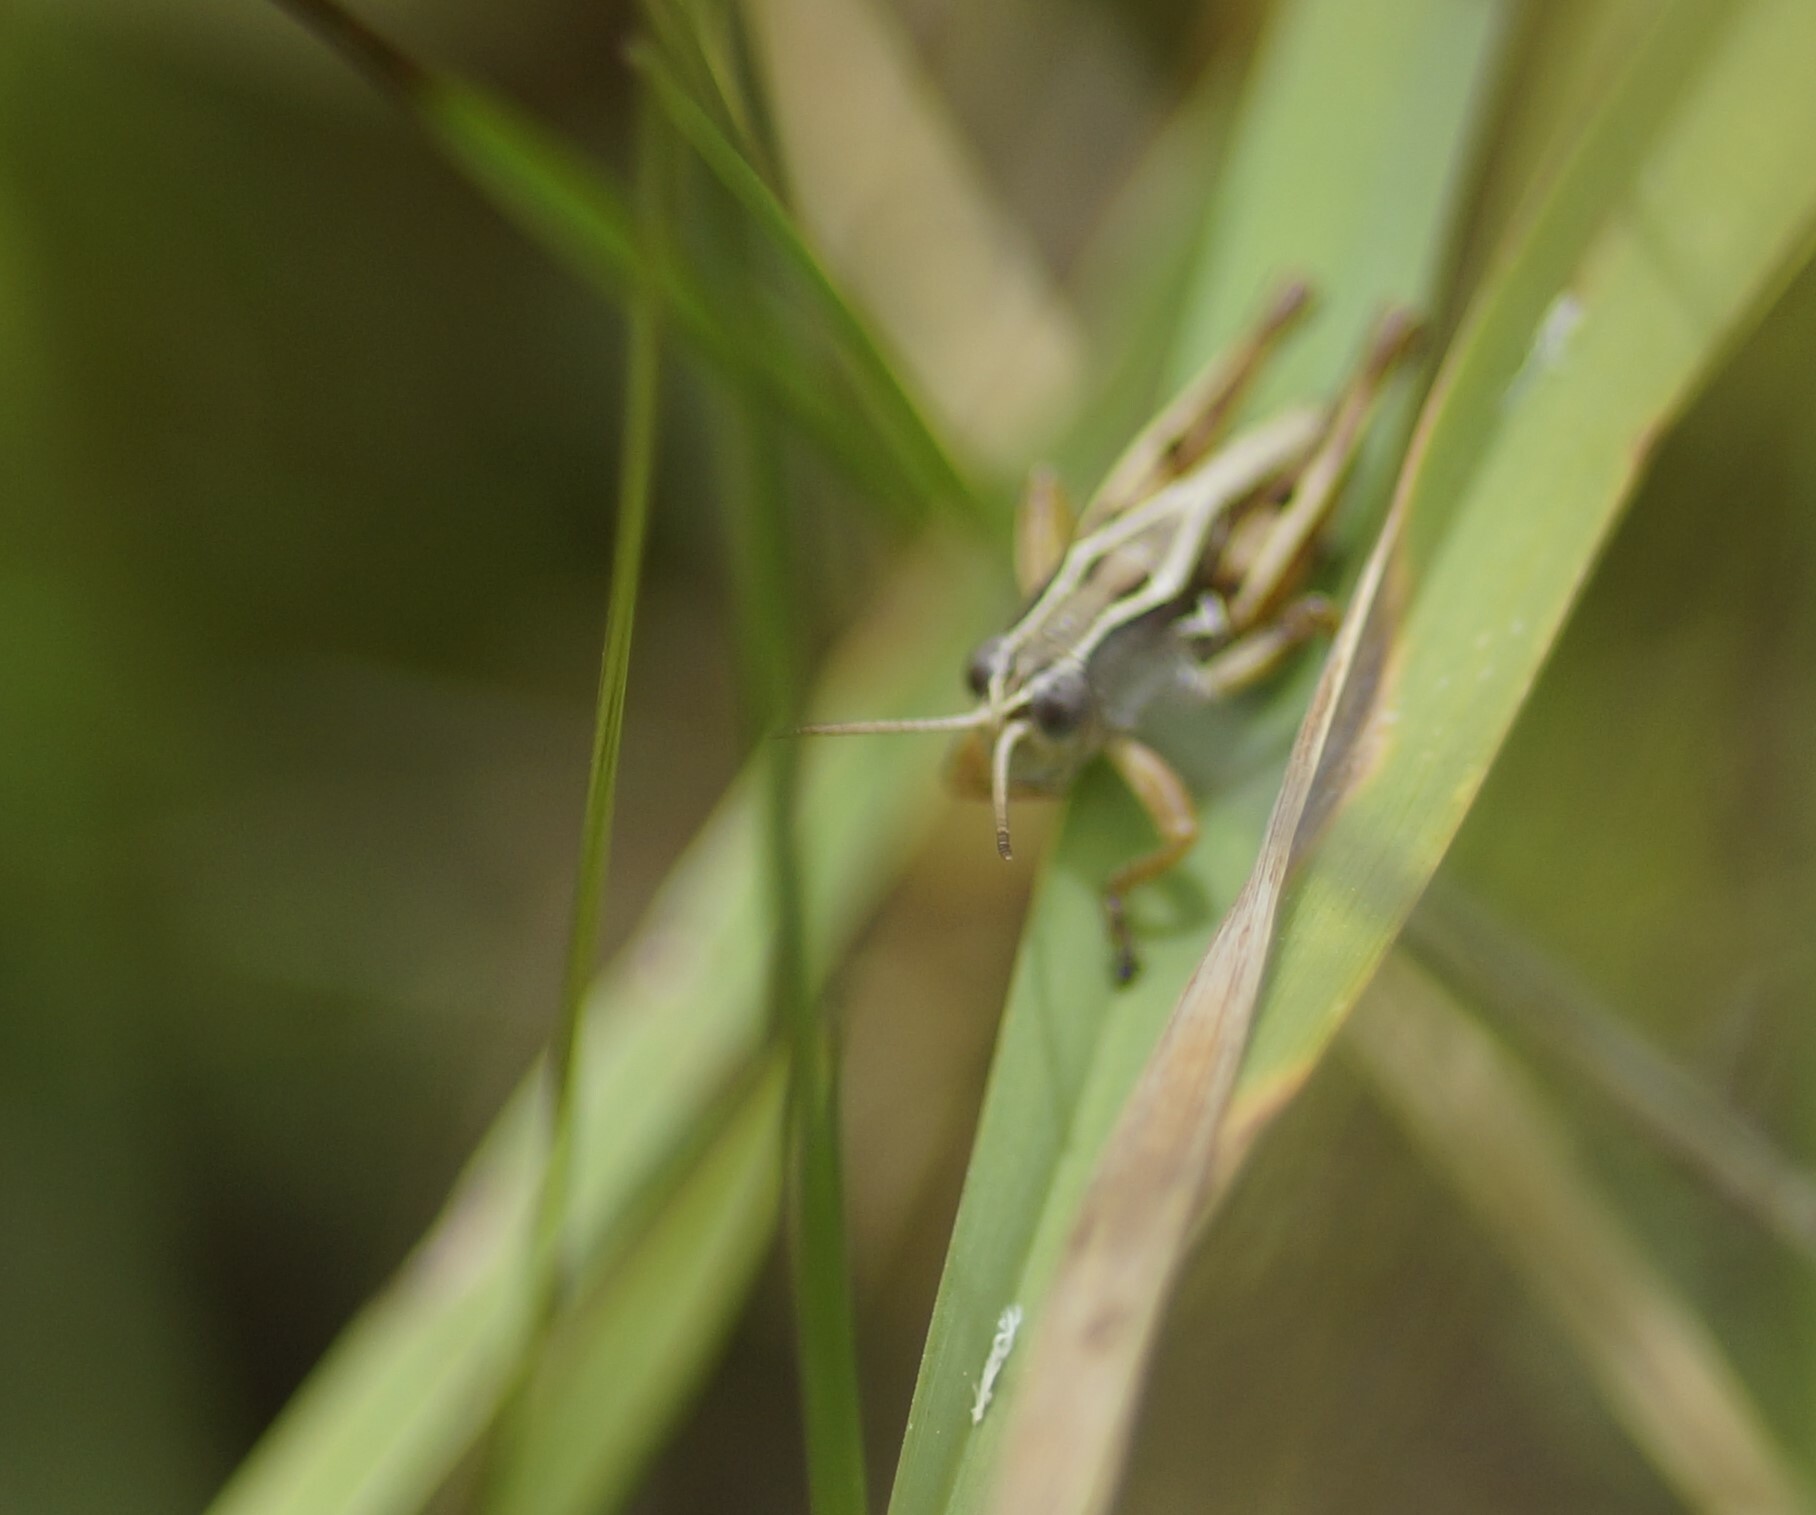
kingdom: Animalia
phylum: Arthropoda
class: Insecta
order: Orthoptera
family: Acrididae
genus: Phaulacridium
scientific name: Phaulacridium marginale
